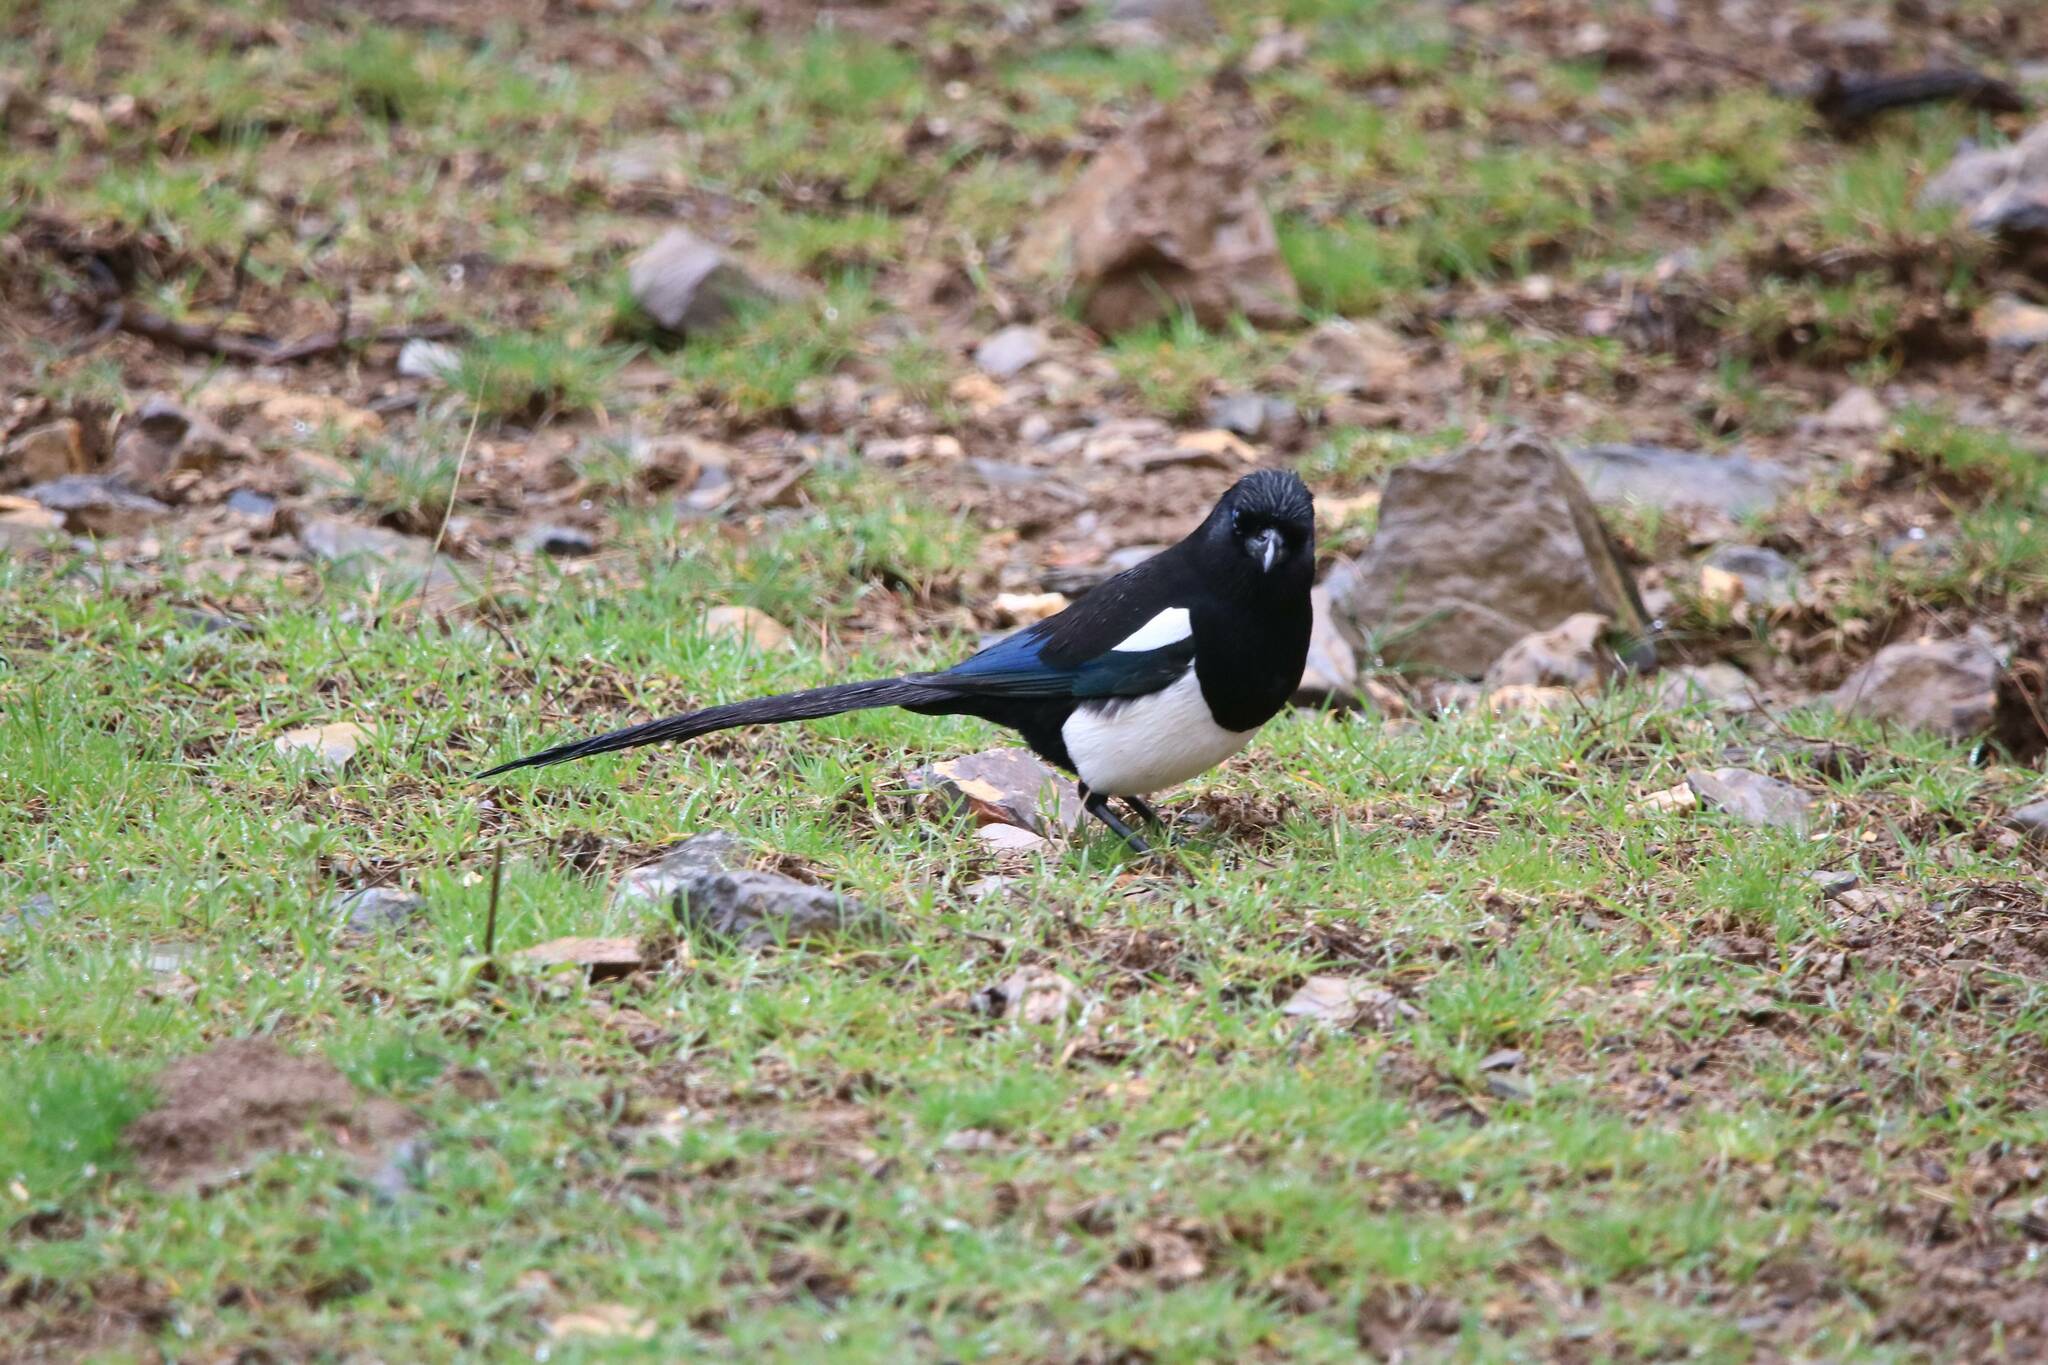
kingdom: Animalia
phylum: Chordata
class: Aves
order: Passeriformes
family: Corvidae
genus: Pica
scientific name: Pica mauritanica
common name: Maghreb magpie
